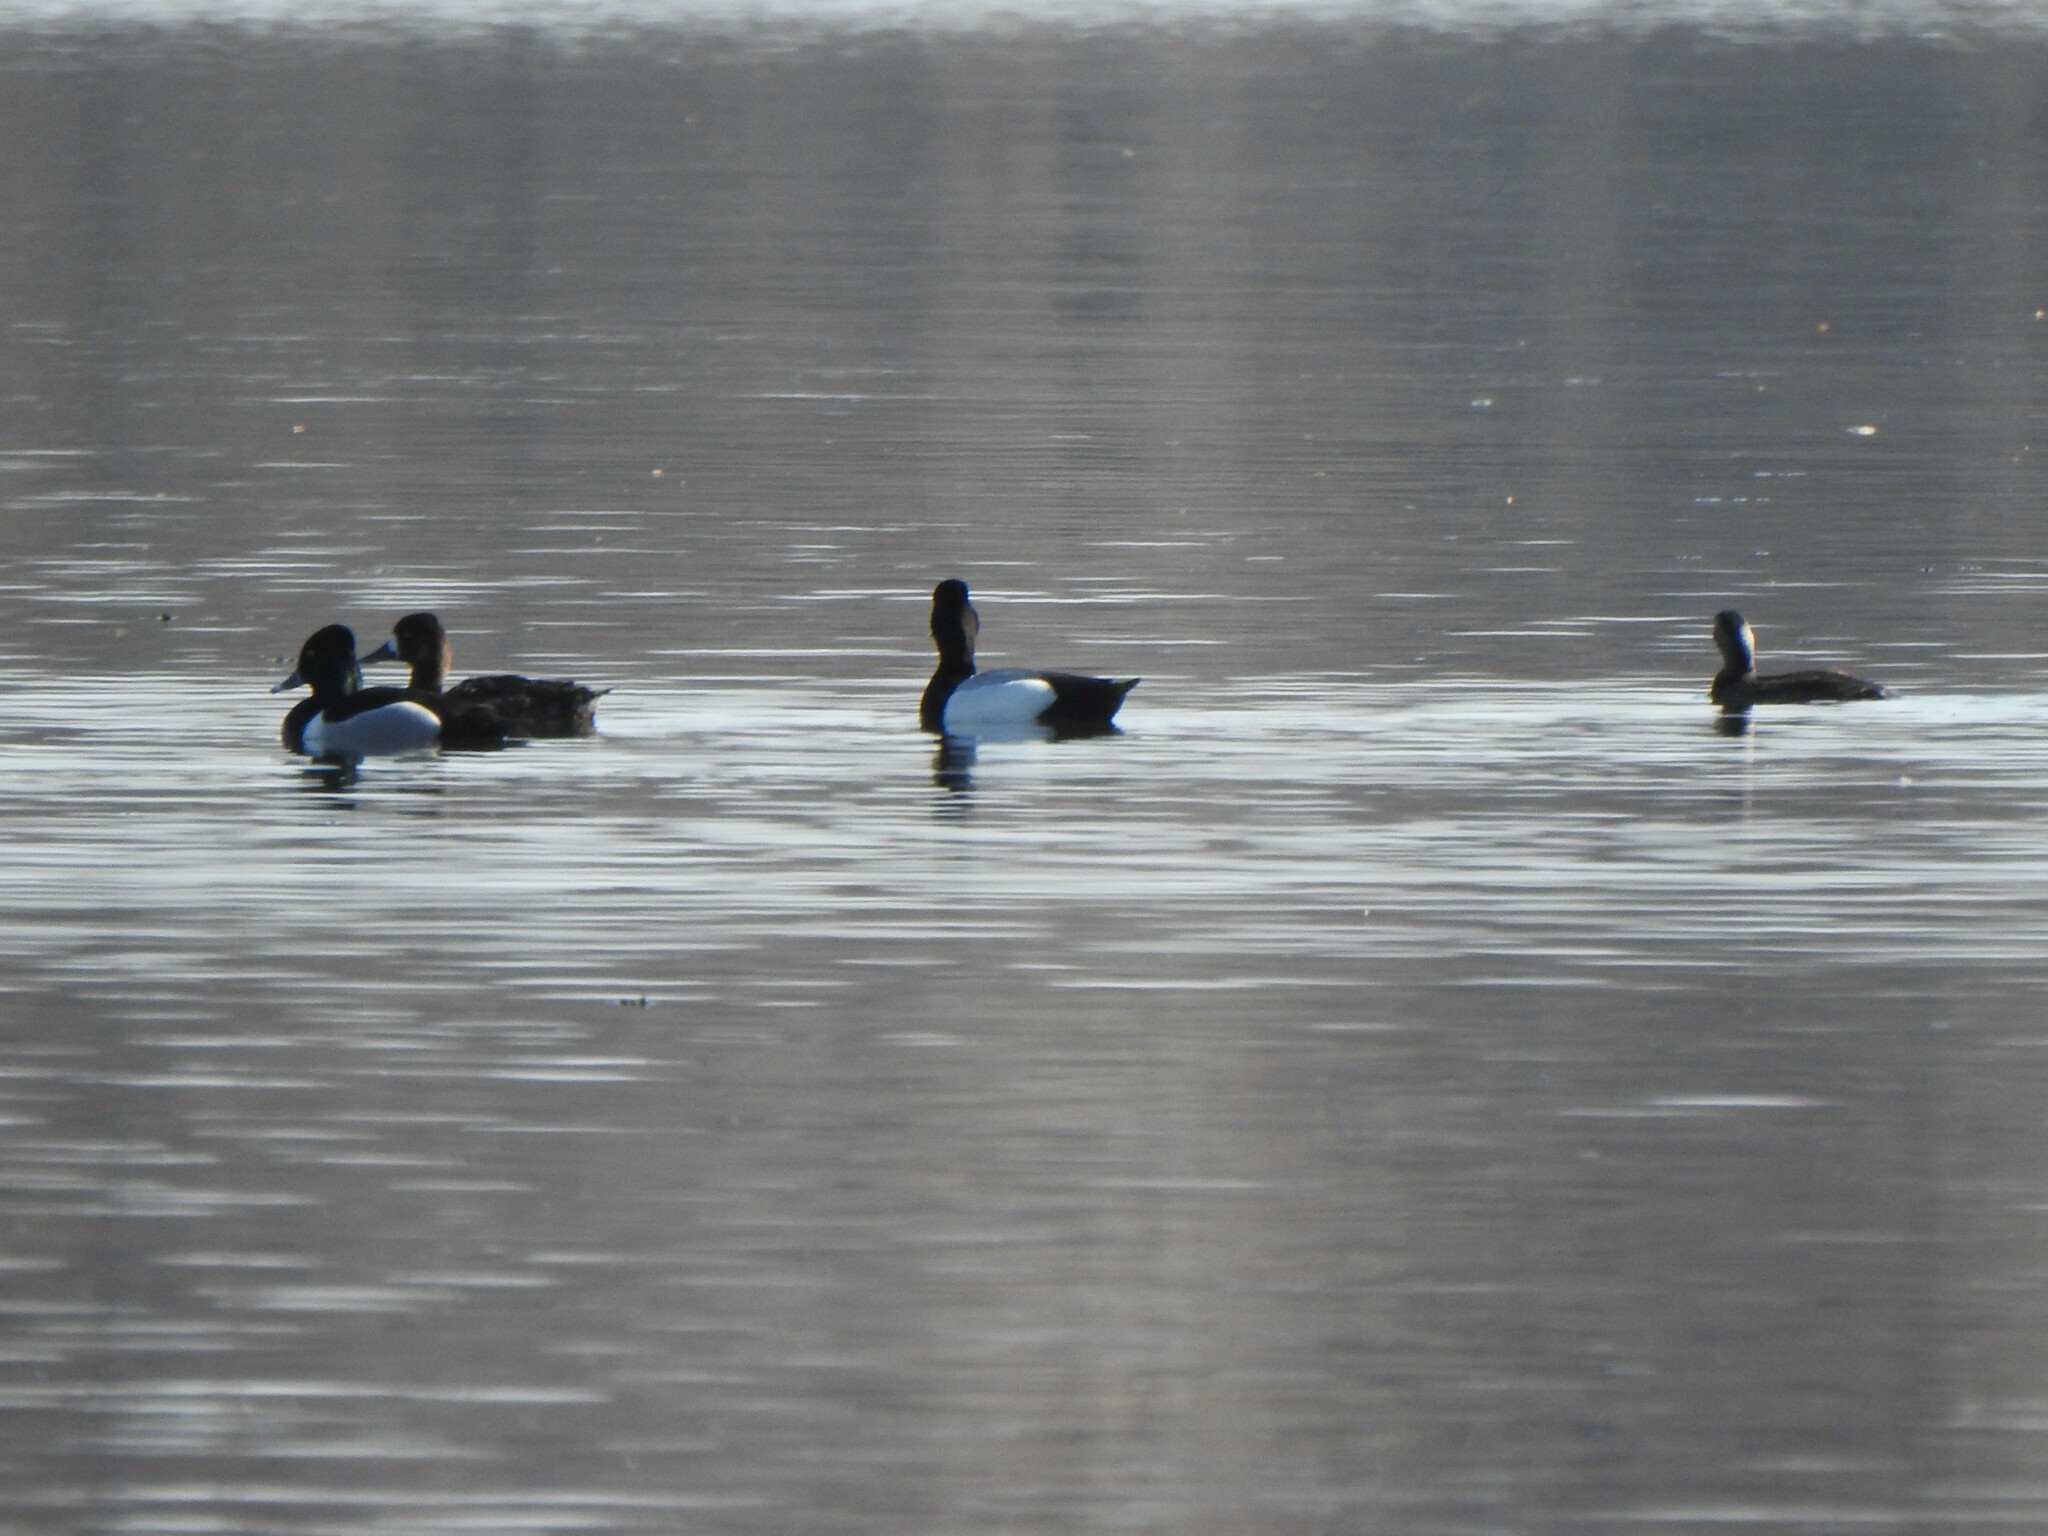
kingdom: Animalia
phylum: Chordata
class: Aves
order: Anseriformes
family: Anatidae
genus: Aythya
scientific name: Aythya collaris
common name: Ring-necked duck
